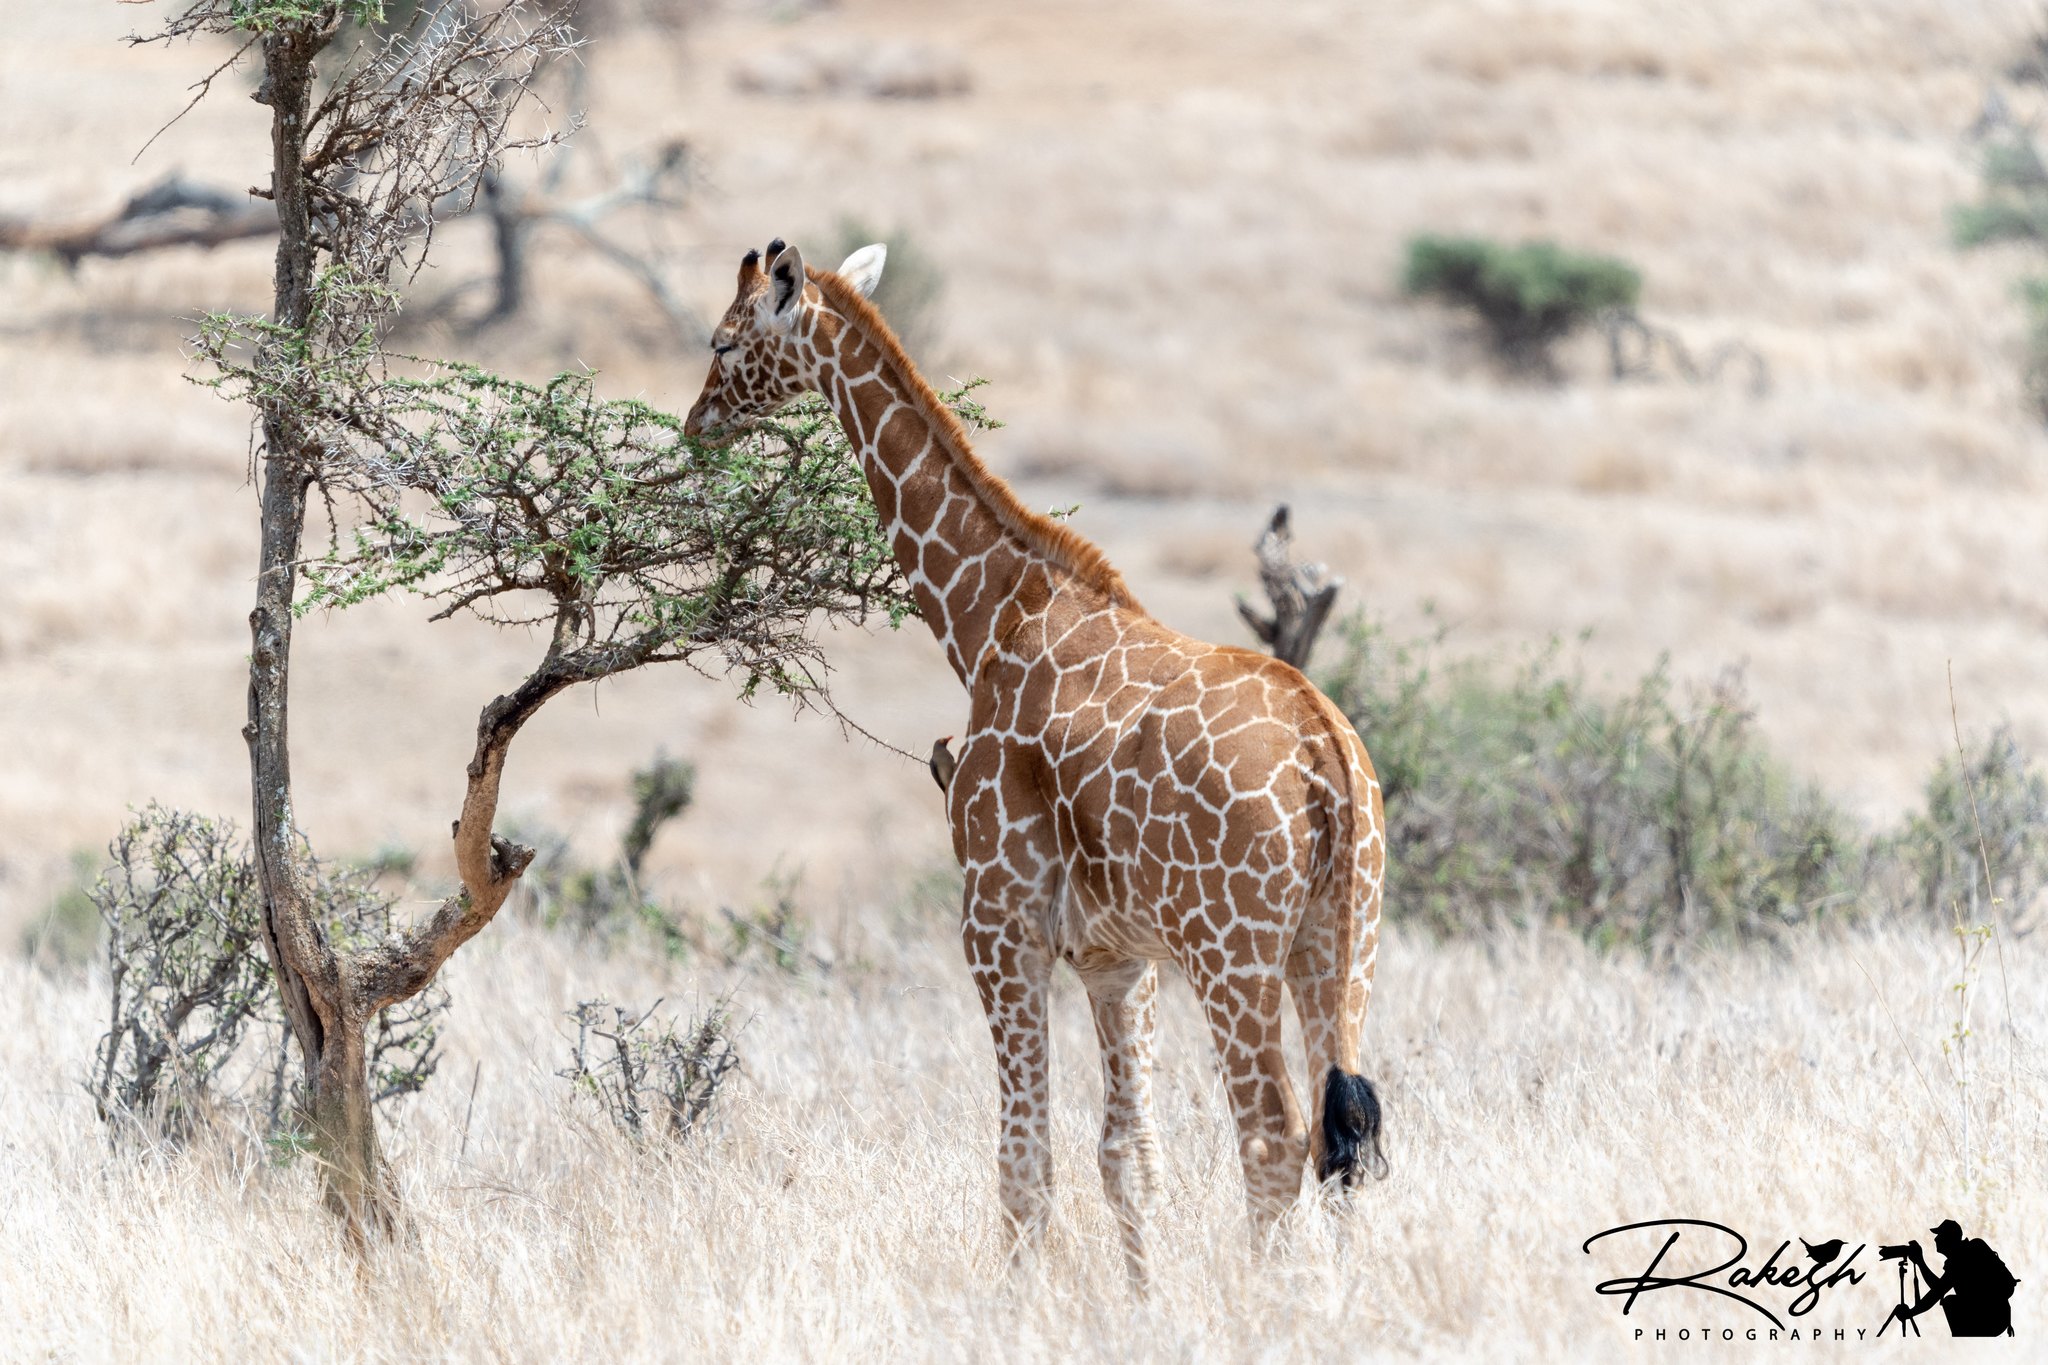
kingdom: Animalia
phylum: Chordata
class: Mammalia
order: Artiodactyla
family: Giraffidae
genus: Giraffa
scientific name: Giraffa reticulata
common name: Reticulated giraffe
